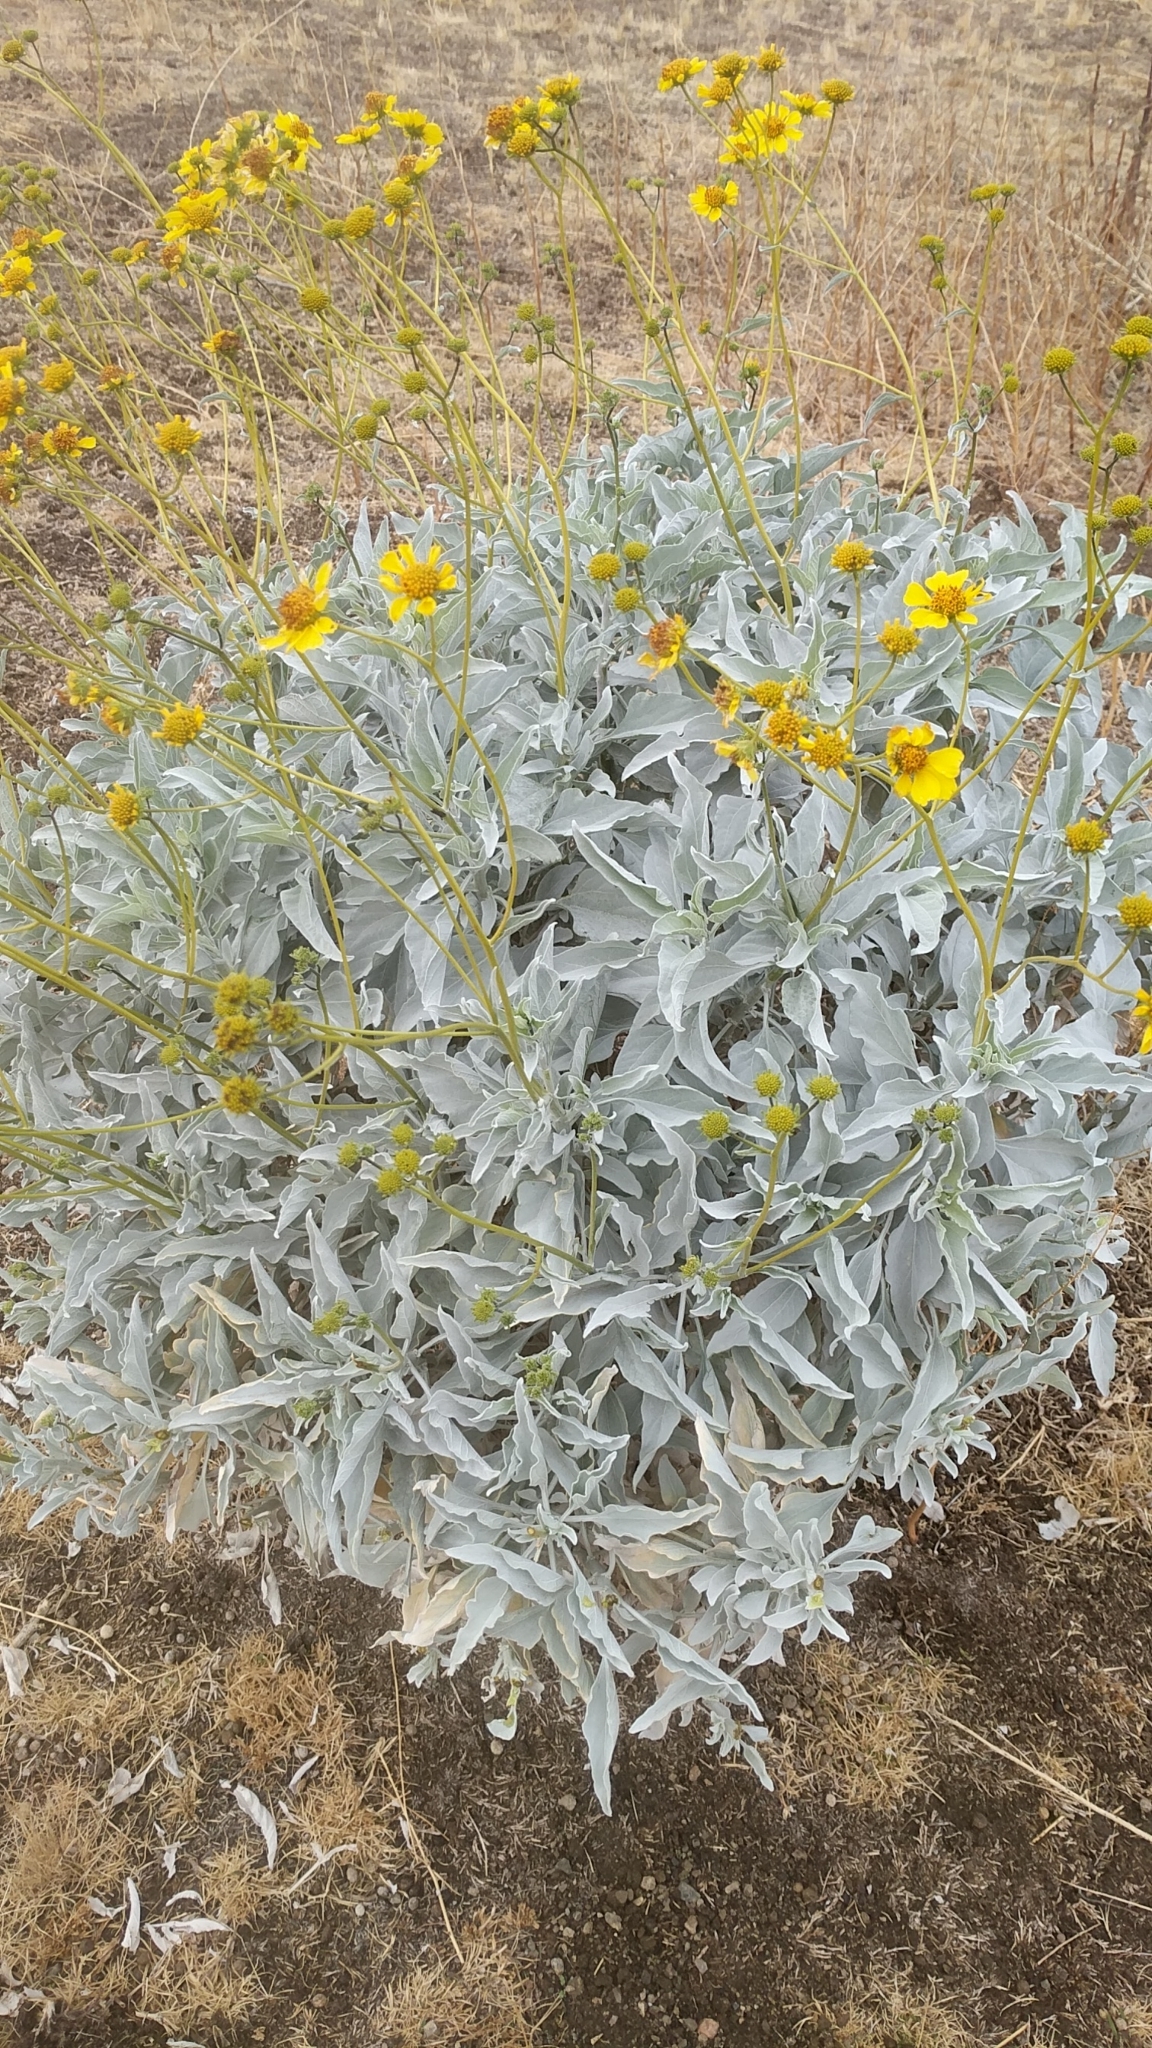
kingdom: Plantae
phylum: Tracheophyta
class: Magnoliopsida
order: Asterales
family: Asteraceae
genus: Encelia
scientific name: Encelia farinosa
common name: Brittlebush
